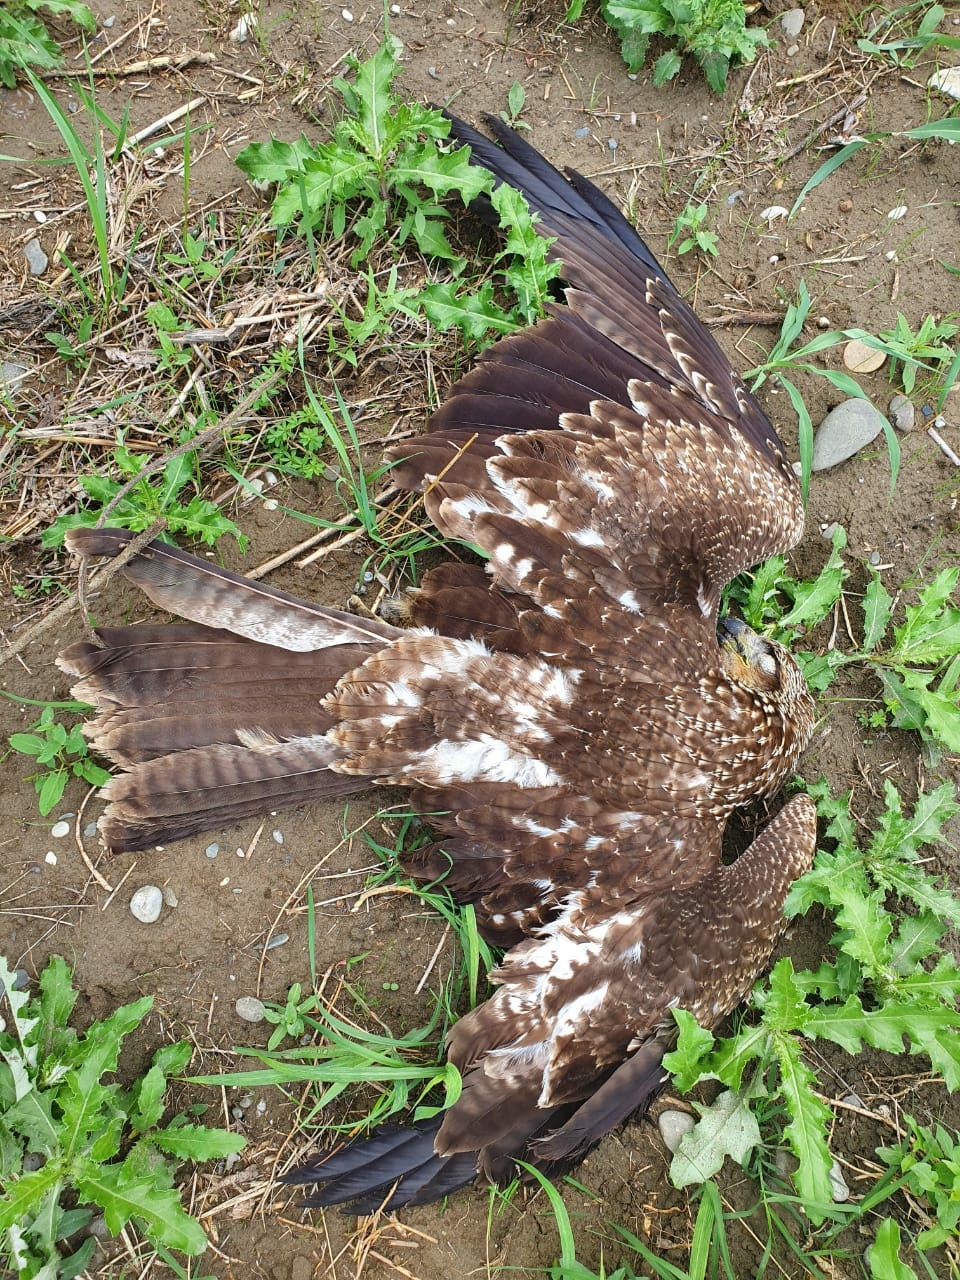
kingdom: Animalia
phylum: Chordata
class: Aves
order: Accipitriformes
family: Accipitridae
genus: Milvus
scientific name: Milvus migrans
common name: Black kite
